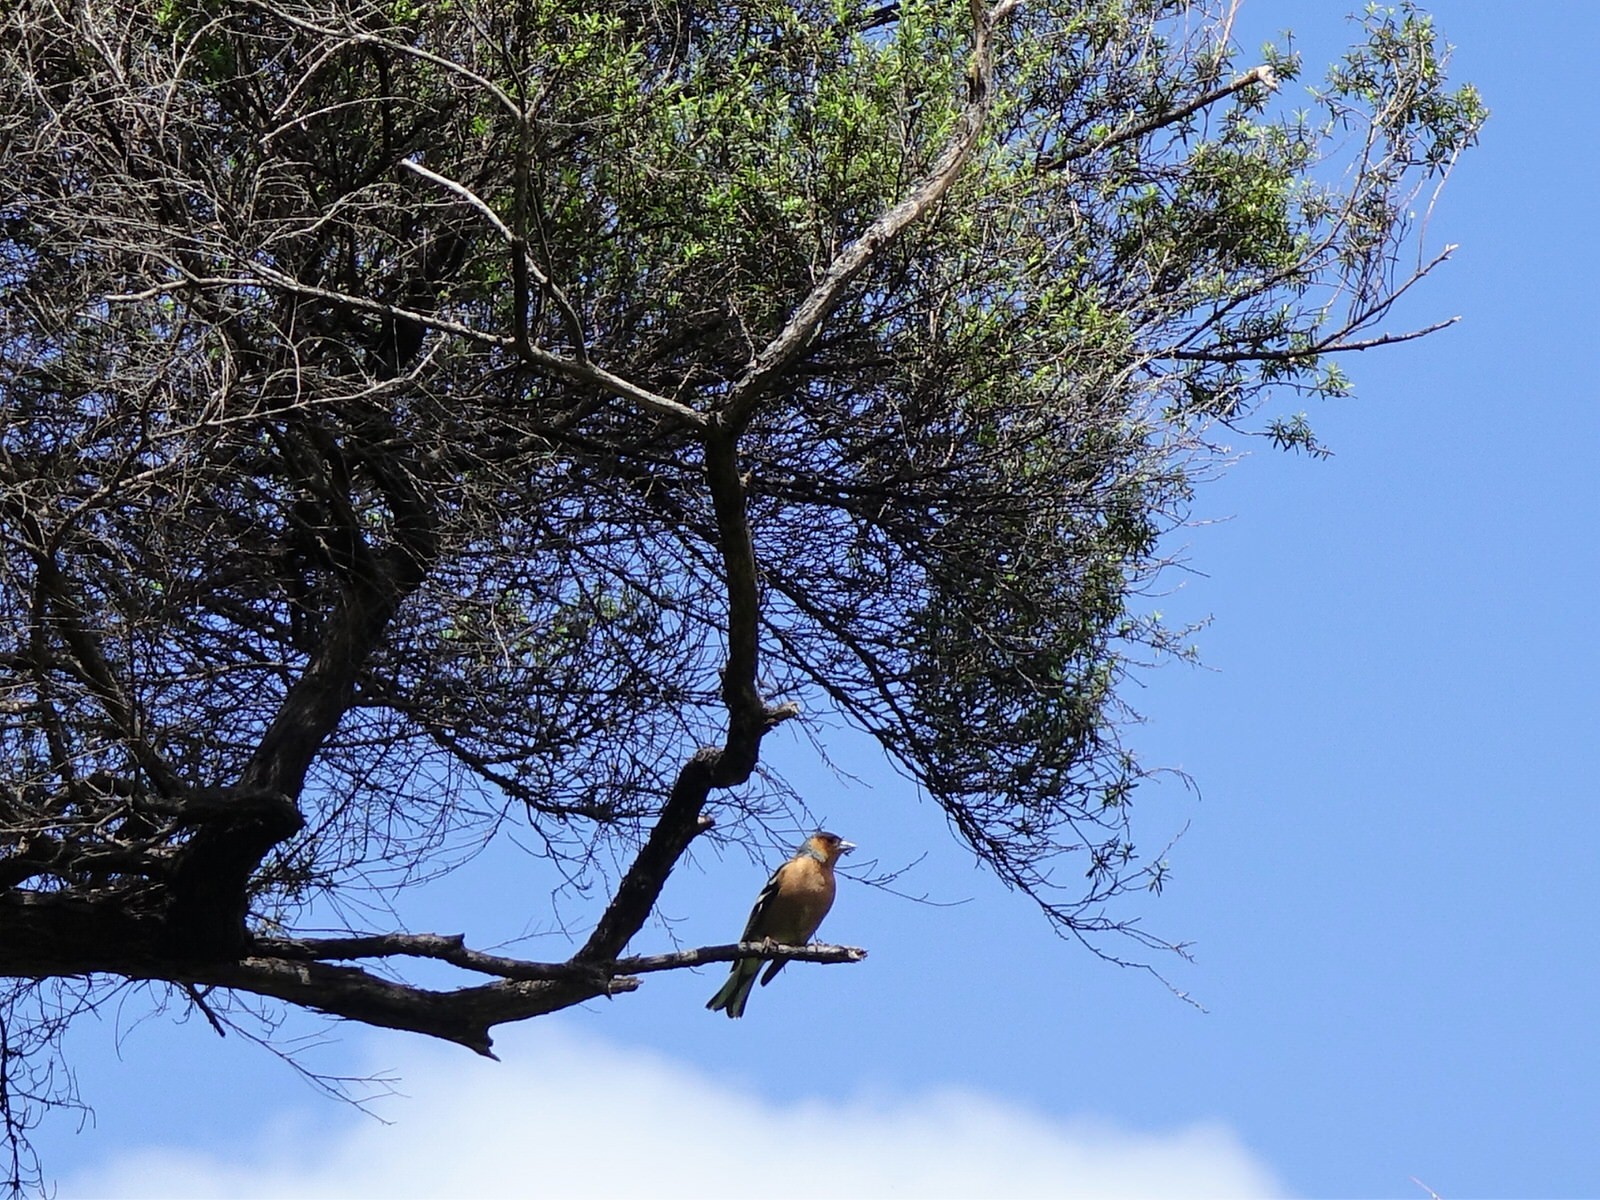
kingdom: Animalia
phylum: Chordata
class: Aves
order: Passeriformes
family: Fringillidae
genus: Fringilla
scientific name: Fringilla coelebs
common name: Common chaffinch
